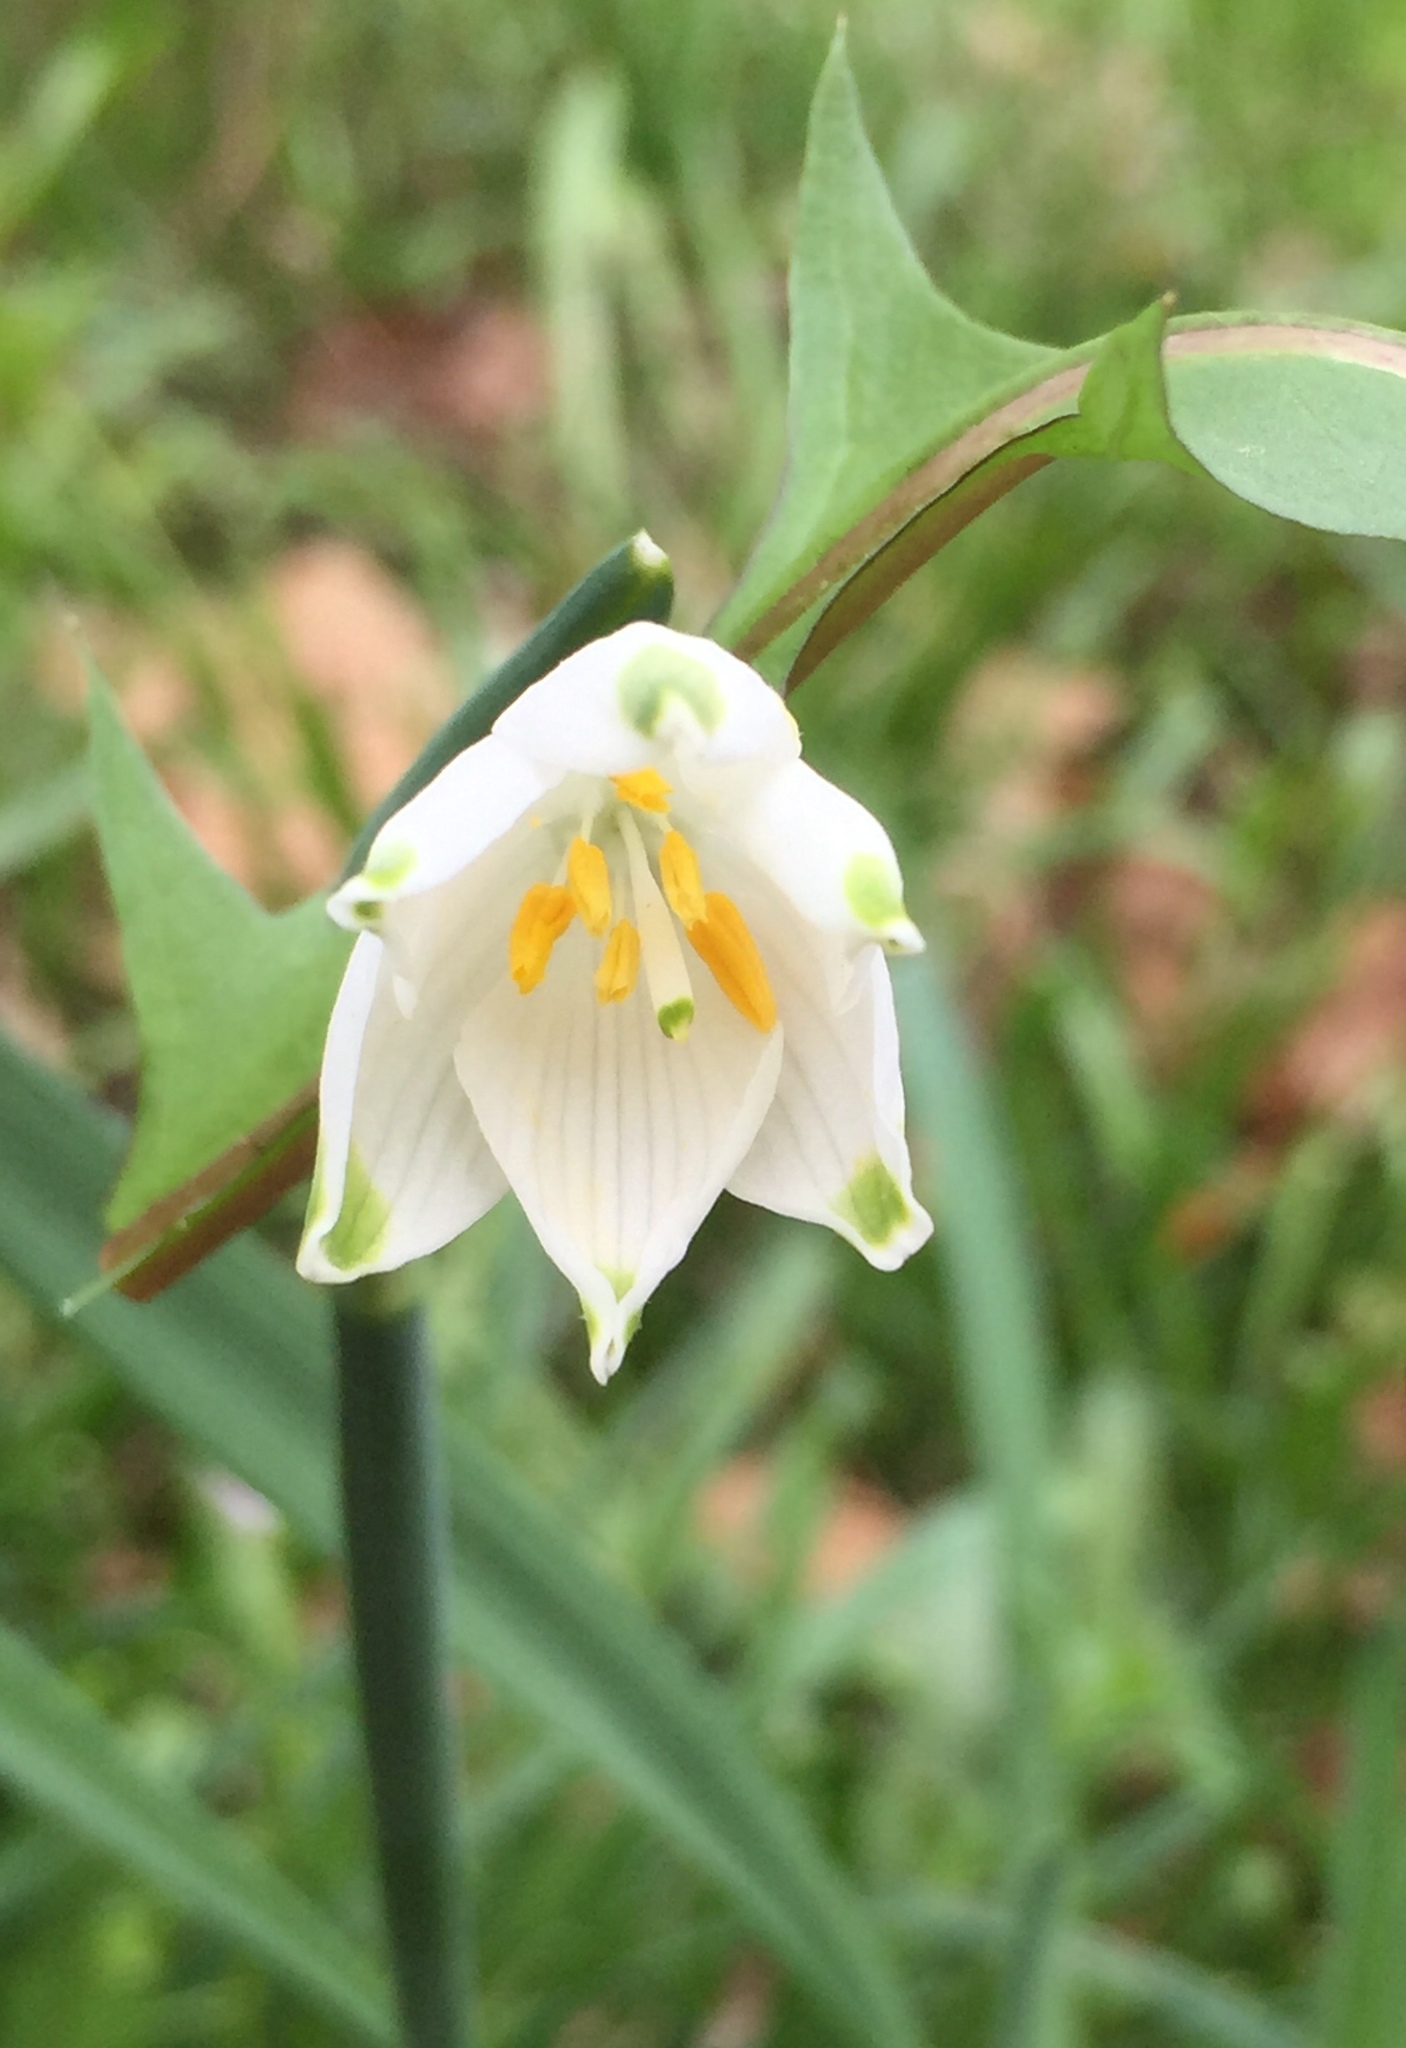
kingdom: Plantae
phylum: Tracheophyta
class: Liliopsida
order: Asparagales
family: Amaryllidaceae
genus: Leucojum
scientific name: Leucojum aestivum
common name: Summer snowflake
